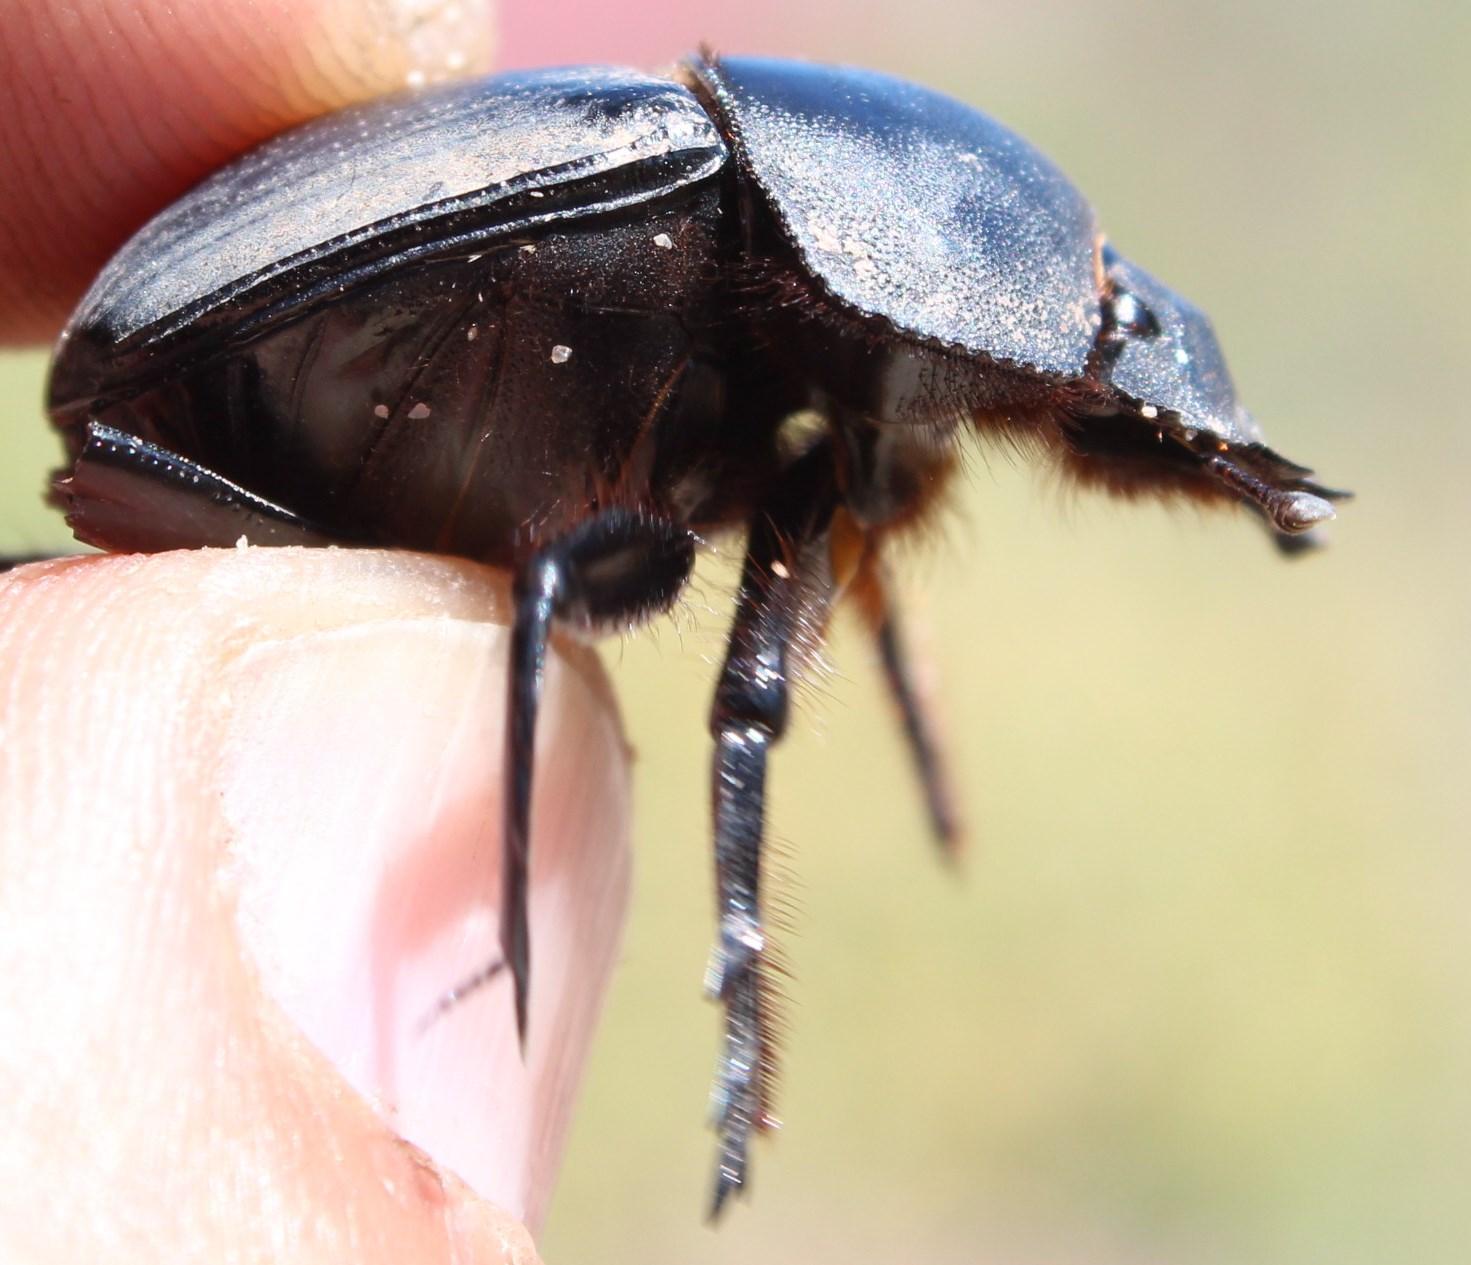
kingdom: Animalia
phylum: Arthropoda
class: Insecta
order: Coleoptera
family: Scarabaeidae
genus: Ateuchetus
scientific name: Ateuchetus hottentorum
